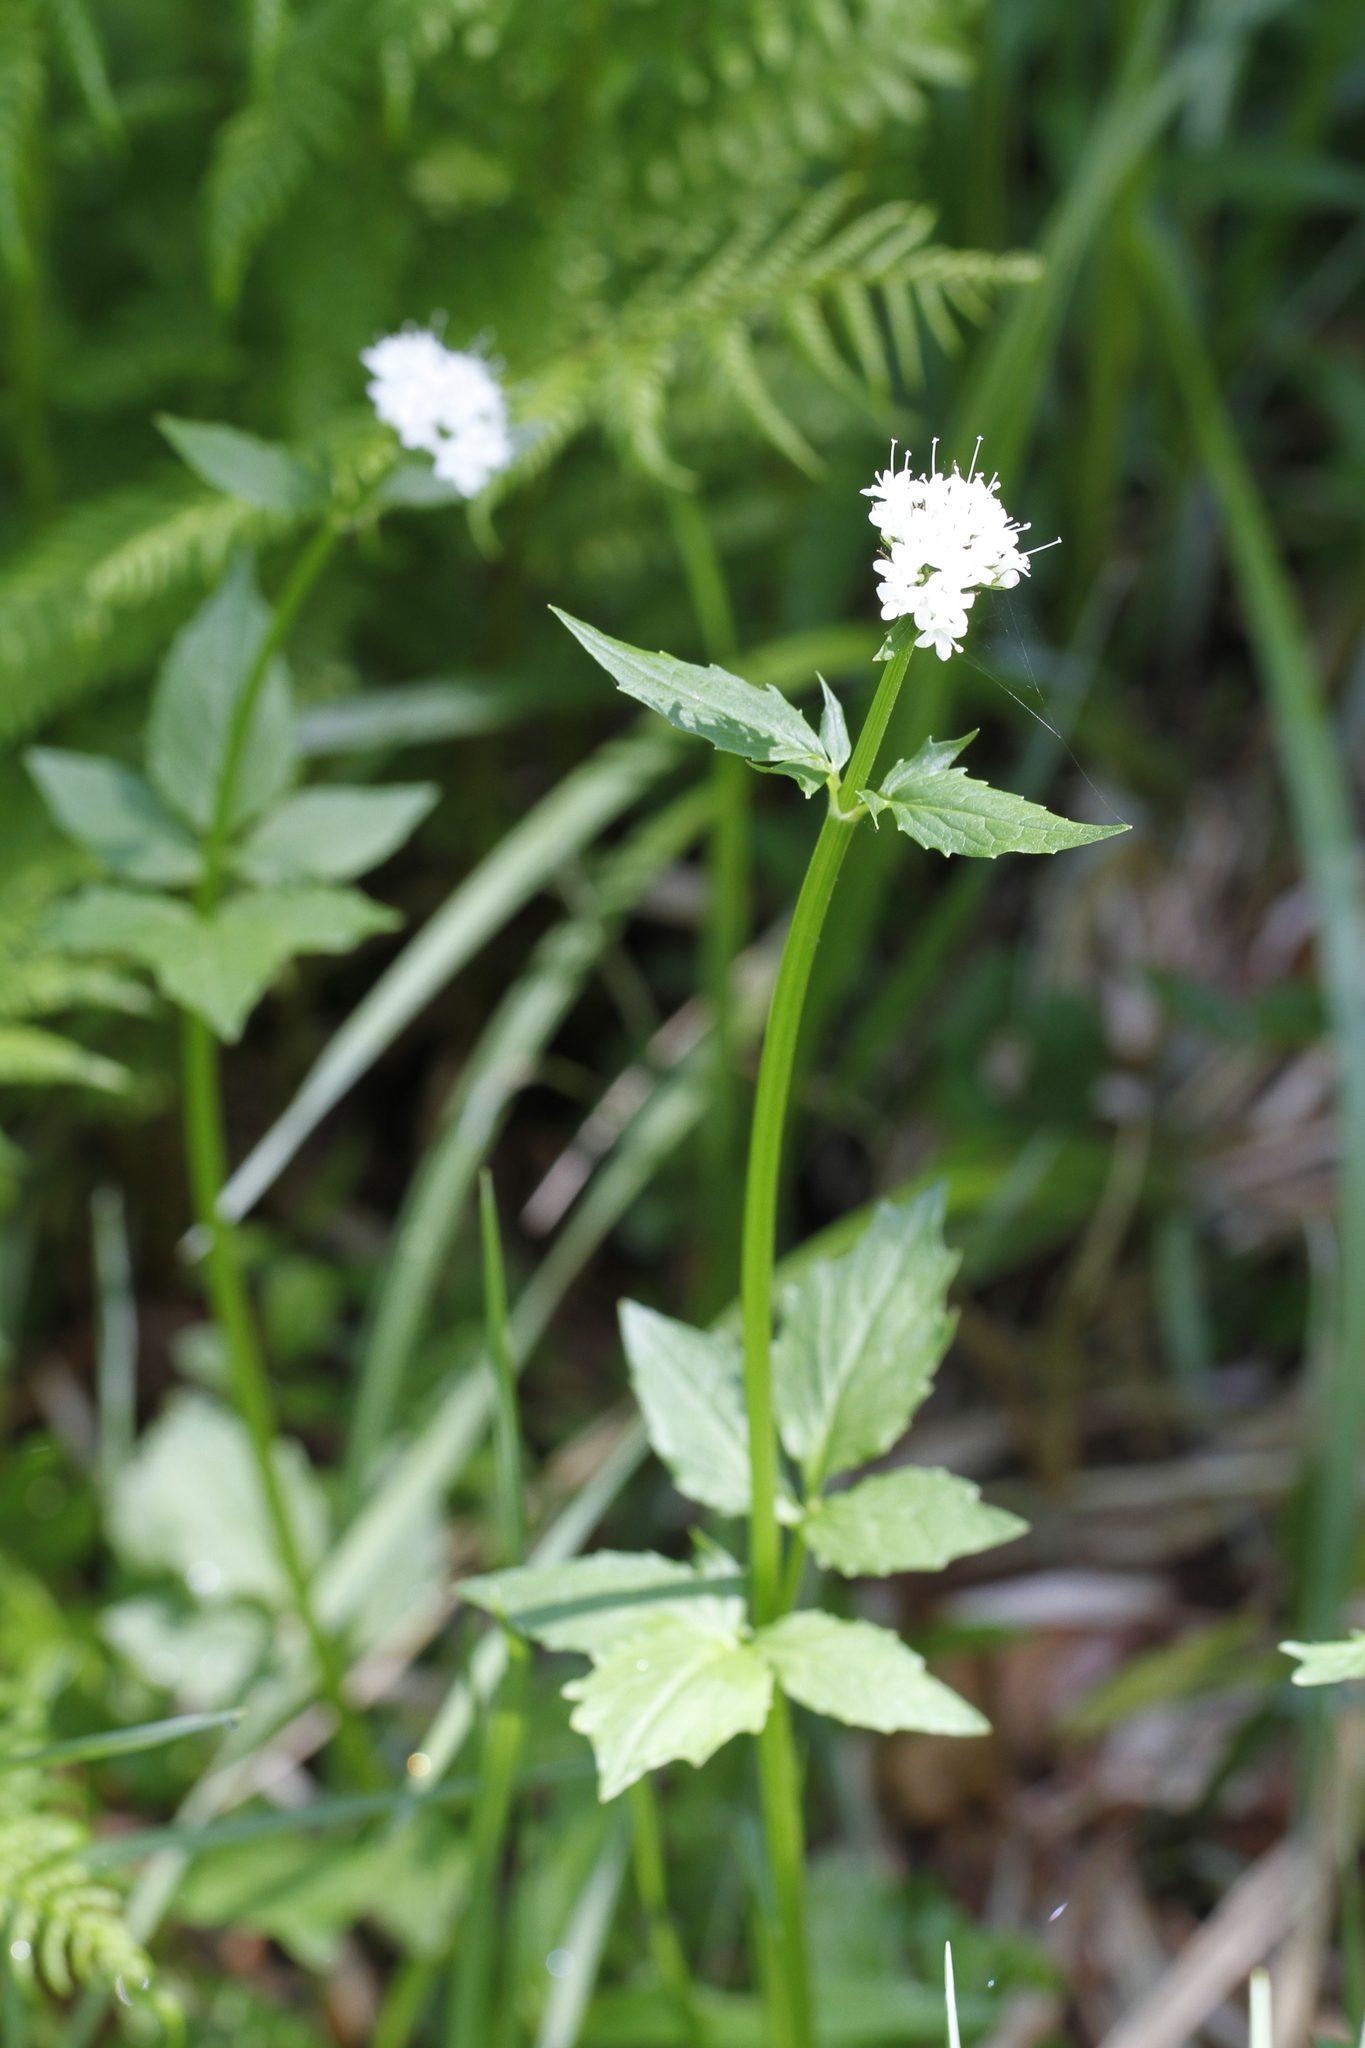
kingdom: Plantae
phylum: Tracheophyta
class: Magnoliopsida
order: Dipsacales
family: Caprifoliaceae
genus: Valeriana
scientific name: Valeriana sitchensis
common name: Pacific valerian
